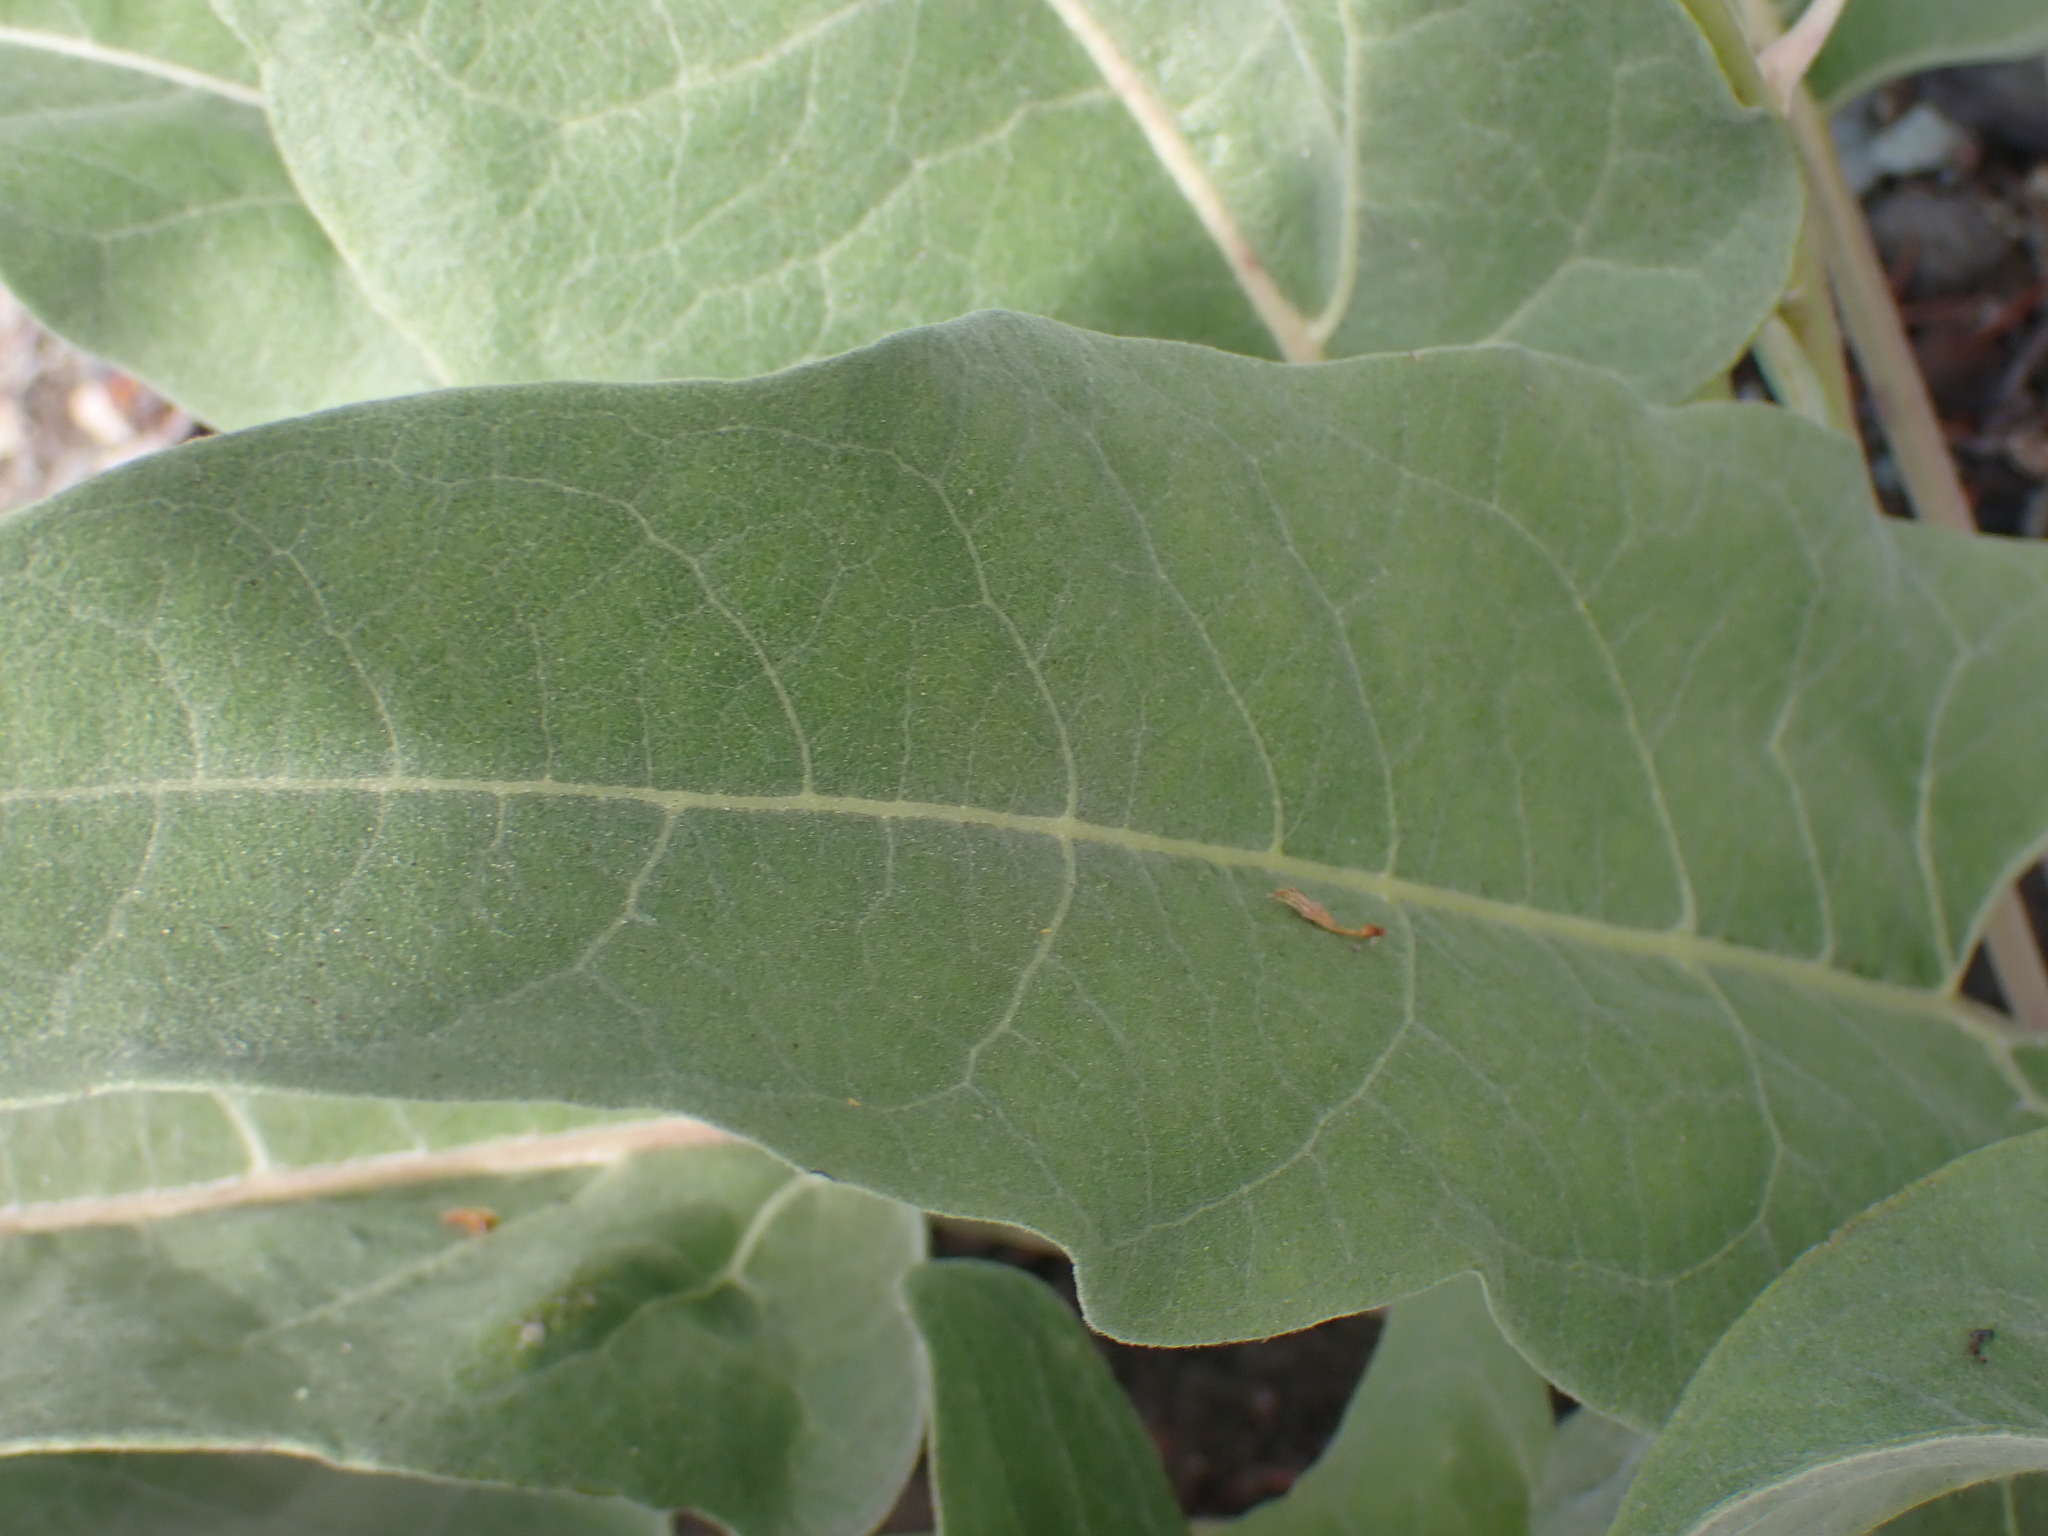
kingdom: Plantae
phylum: Tracheophyta
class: Magnoliopsida
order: Asterales
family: Asteraceae
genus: Wyethia
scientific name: Wyethia sagittata
